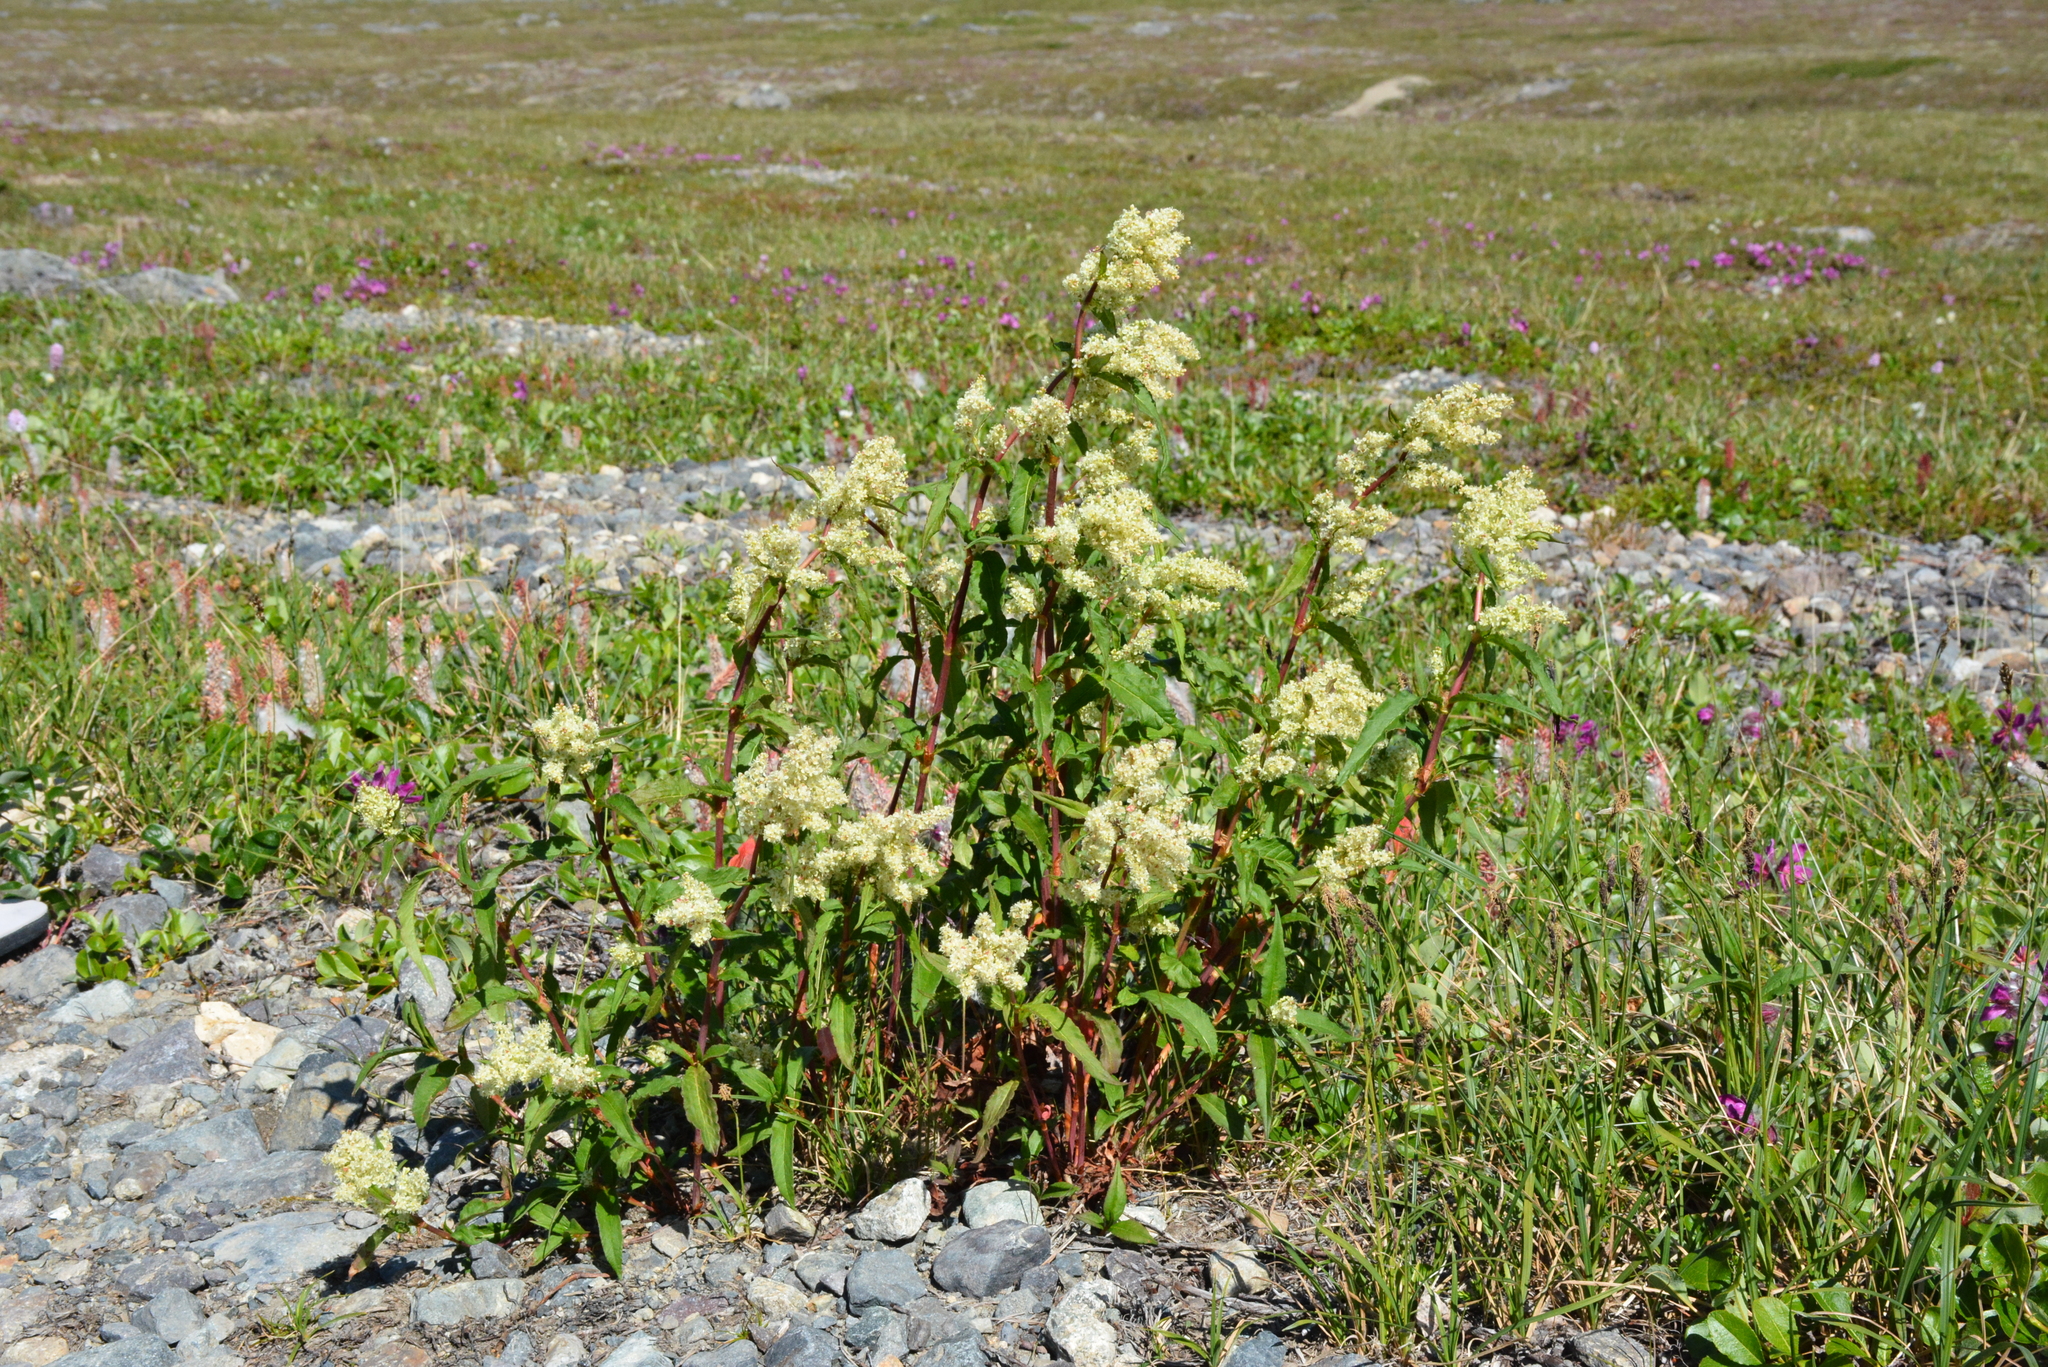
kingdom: Plantae
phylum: Tracheophyta
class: Magnoliopsida
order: Caryophyllales
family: Polygonaceae
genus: Koenigia
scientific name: Koenigia tripterocarpa
